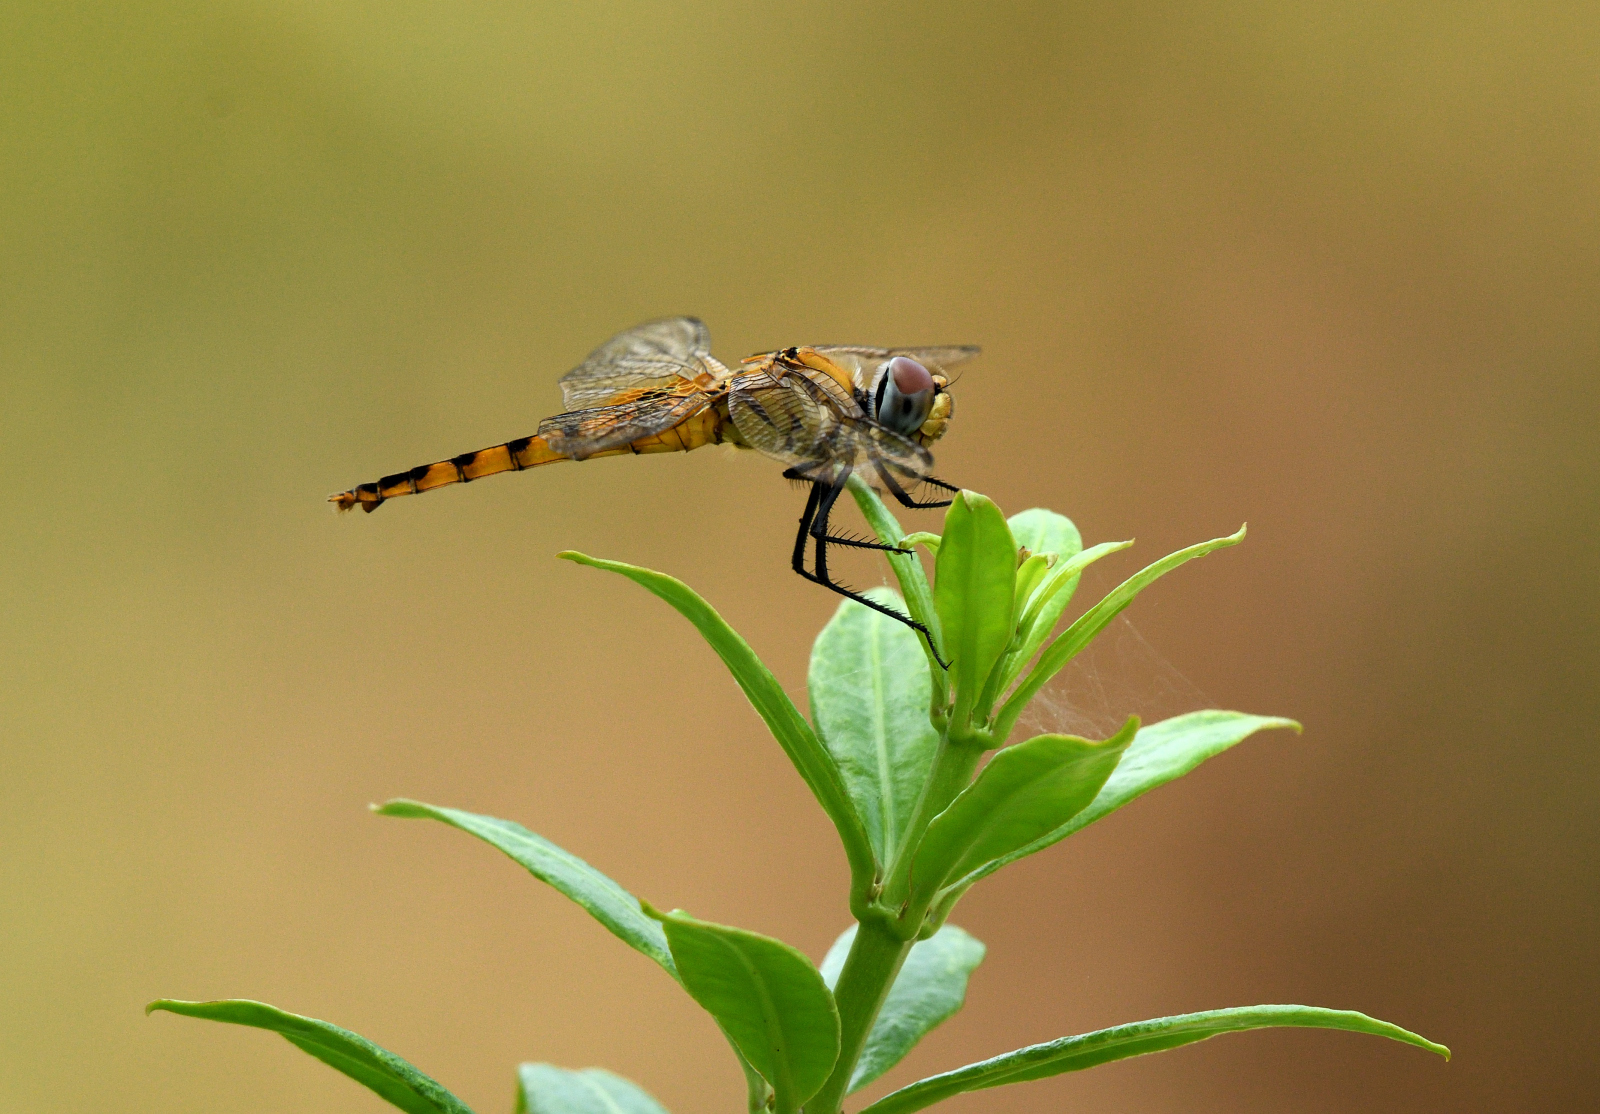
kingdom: Animalia
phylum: Arthropoda
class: Insecta
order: Odonata
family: Libellulidae
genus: Urothemis
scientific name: Urothemis signata
